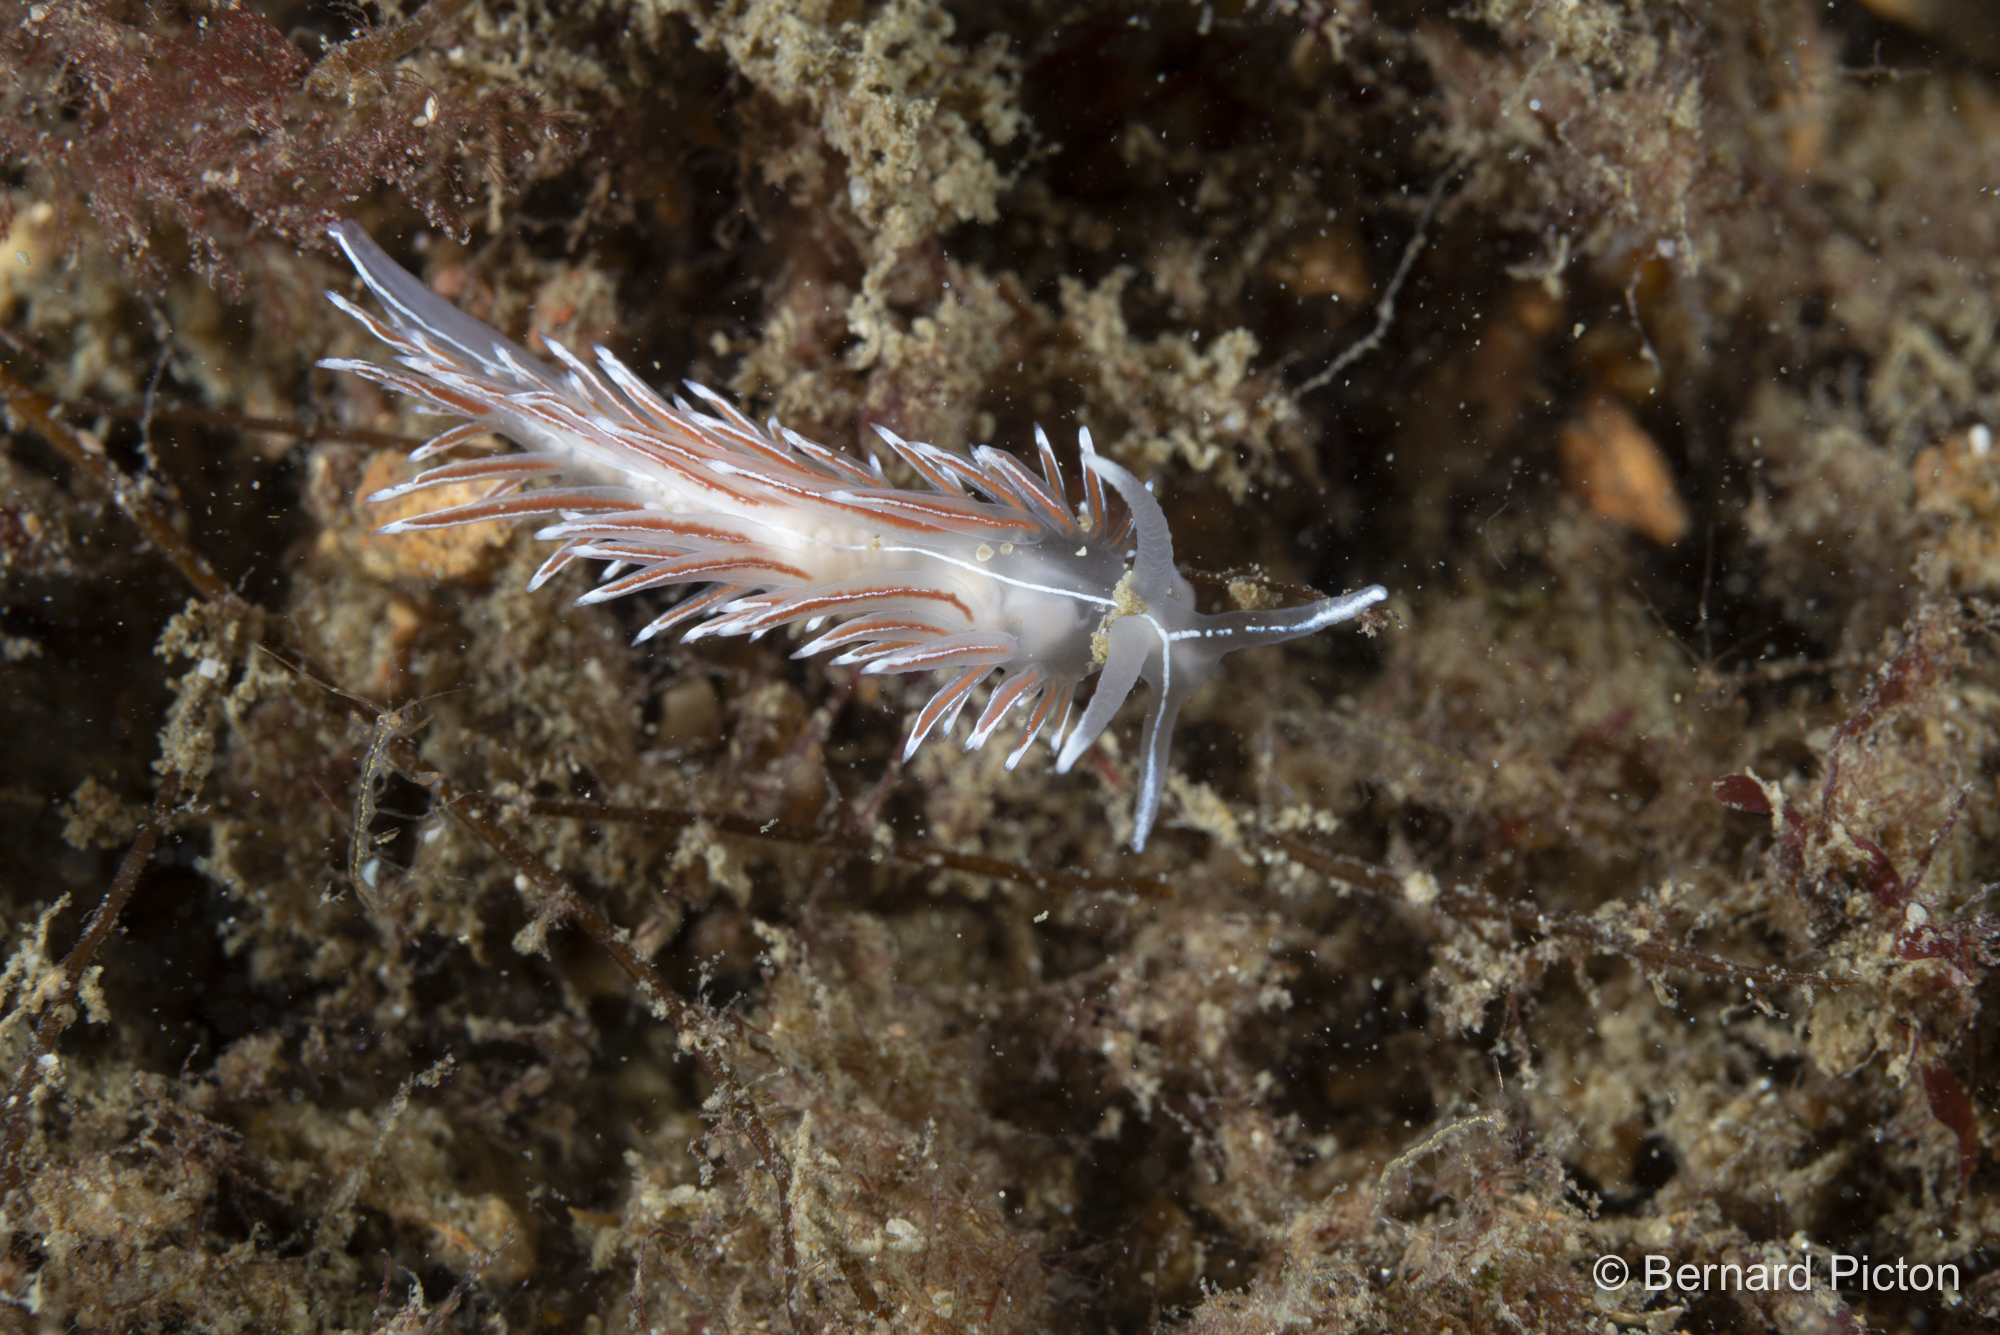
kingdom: Animalia
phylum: Mollusca
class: Gastropoda
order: Nudibranchia
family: Coryphellidae
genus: Coryphella
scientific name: Coryphella lineata
